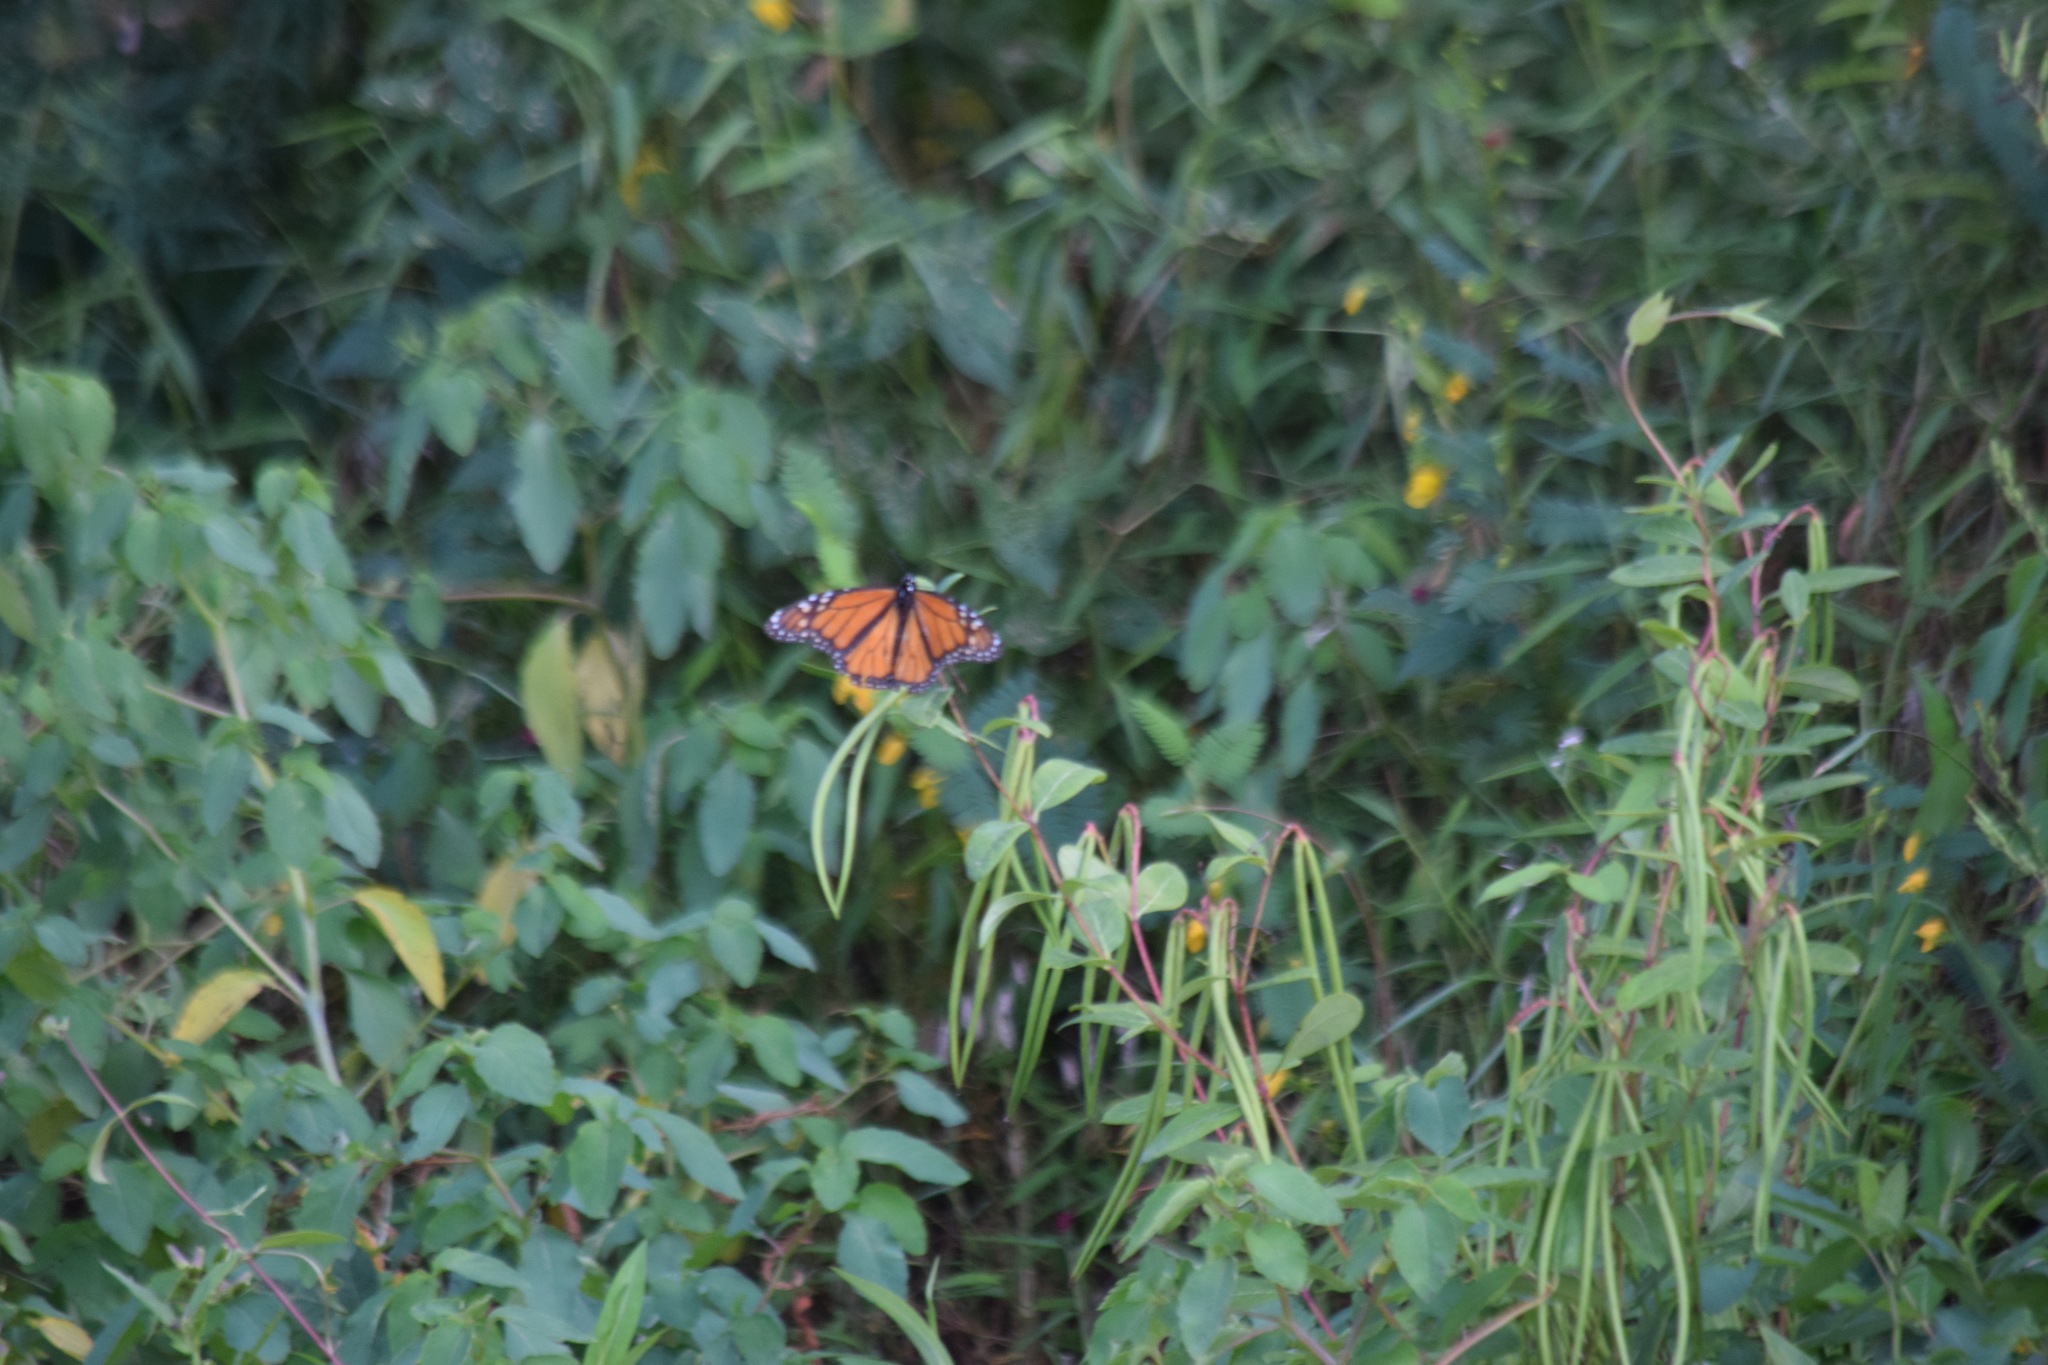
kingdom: Animalia
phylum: Arthropoda
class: Insecta
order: Lepidoptera
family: Nymphalidae
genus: Danaus
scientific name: Danaus plexippus
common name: Monarch
